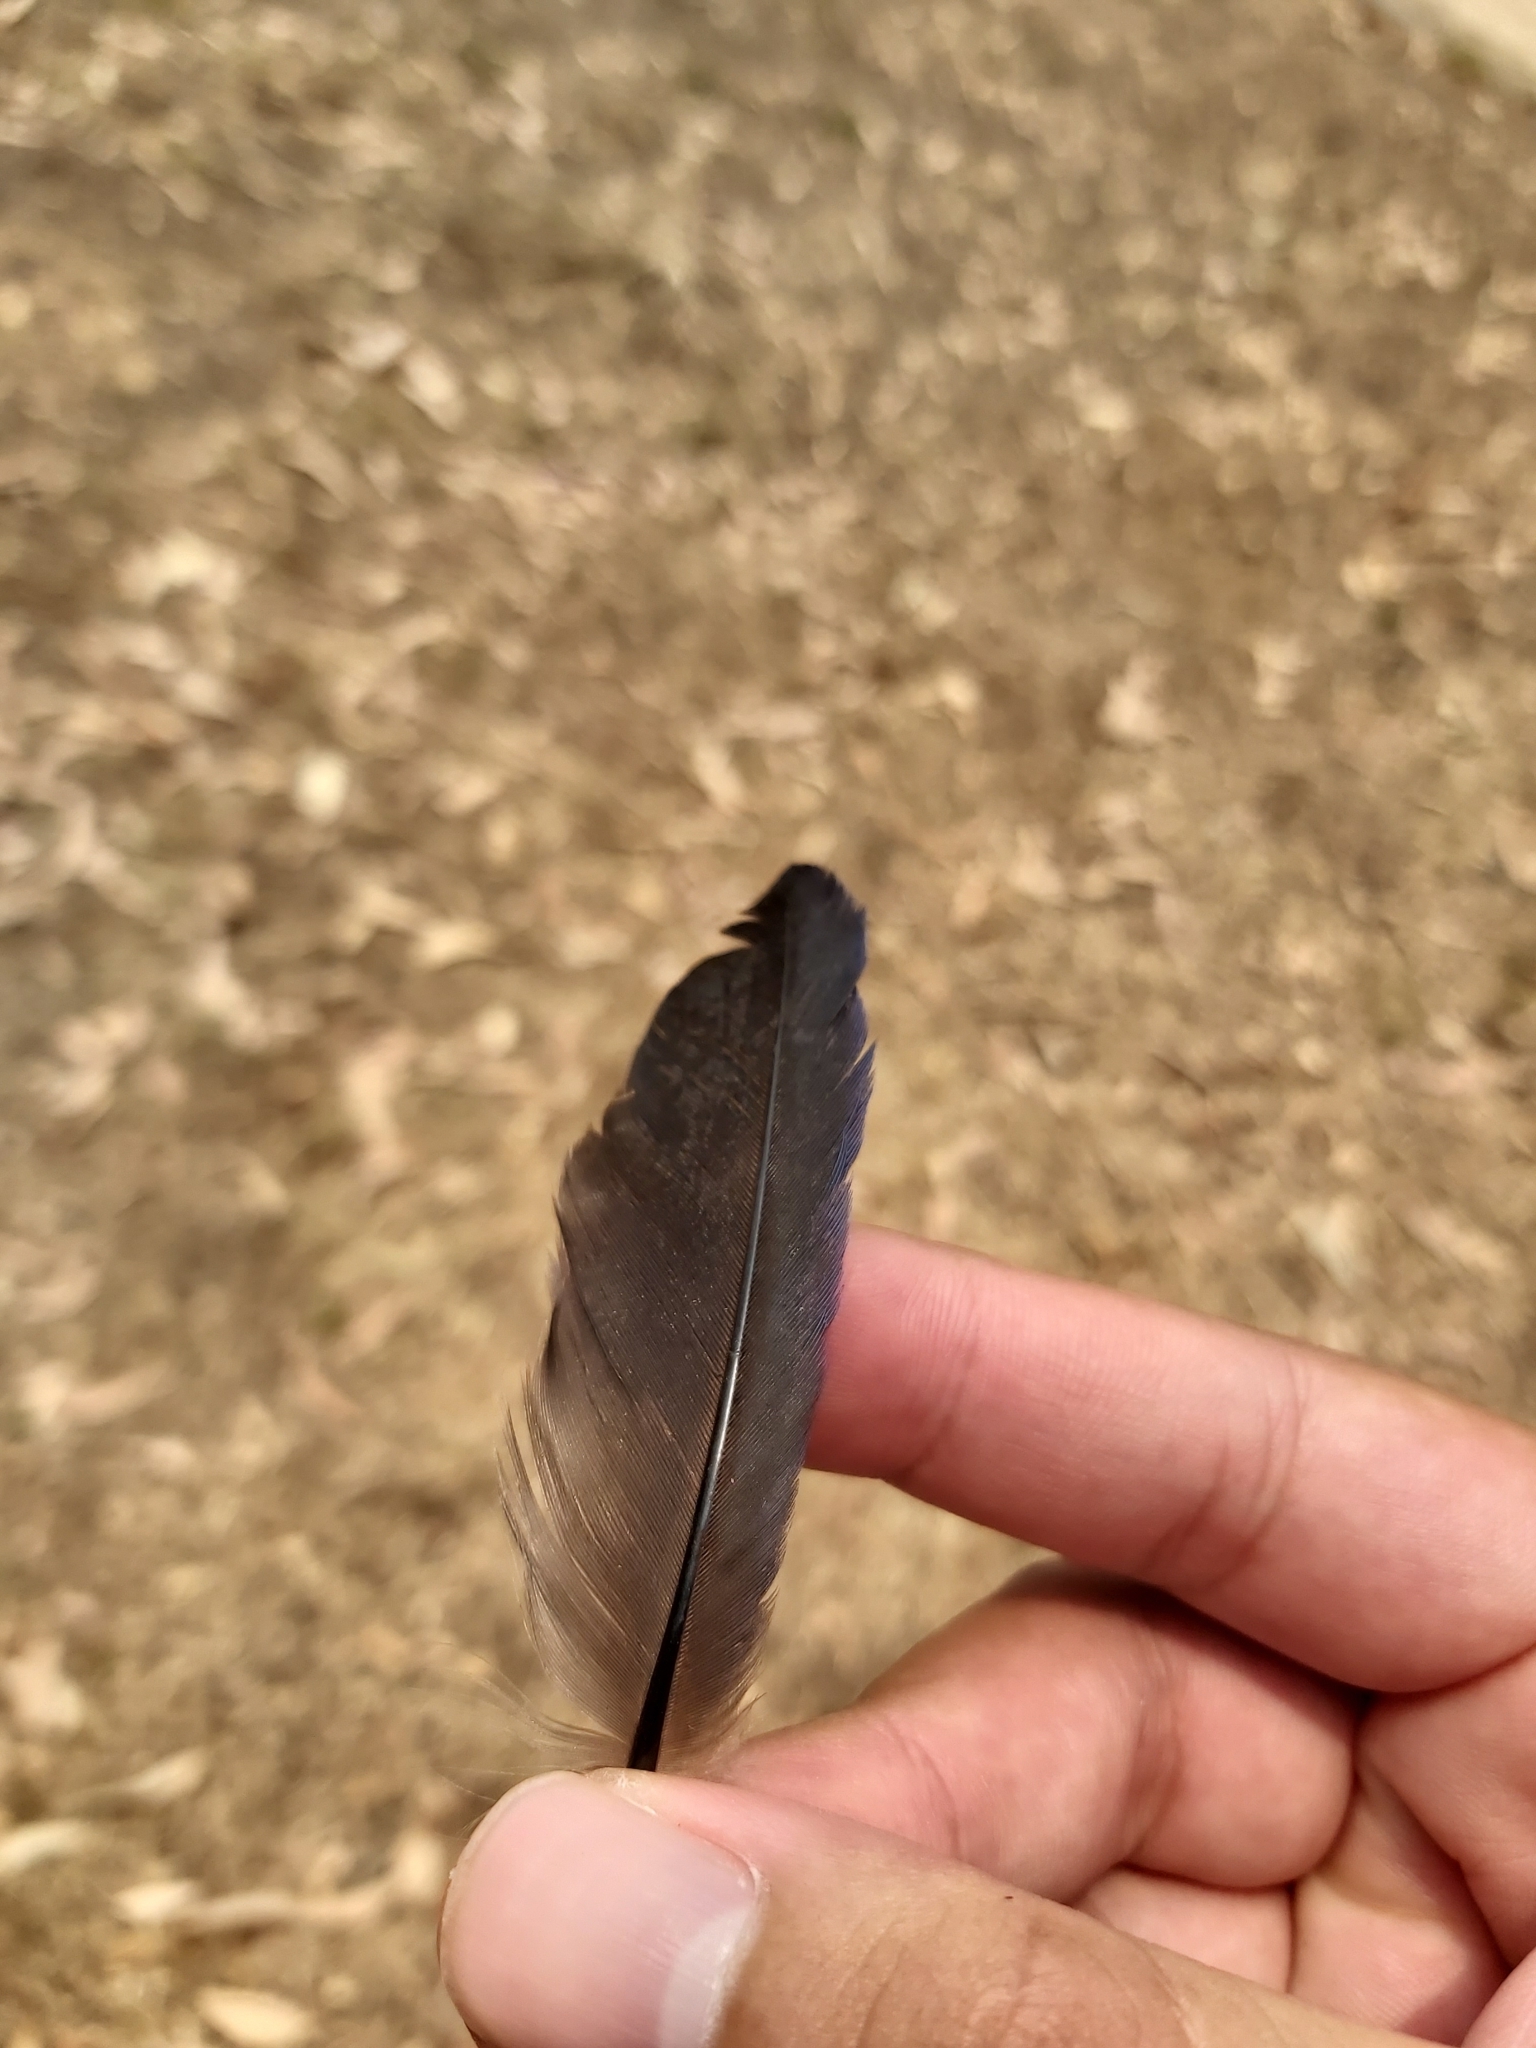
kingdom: Animalia
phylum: Chordata
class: Aves
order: Gruiformes
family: Rallidae
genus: Porphyrio
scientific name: Porphyrio melanotus
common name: Australasian swamphen
